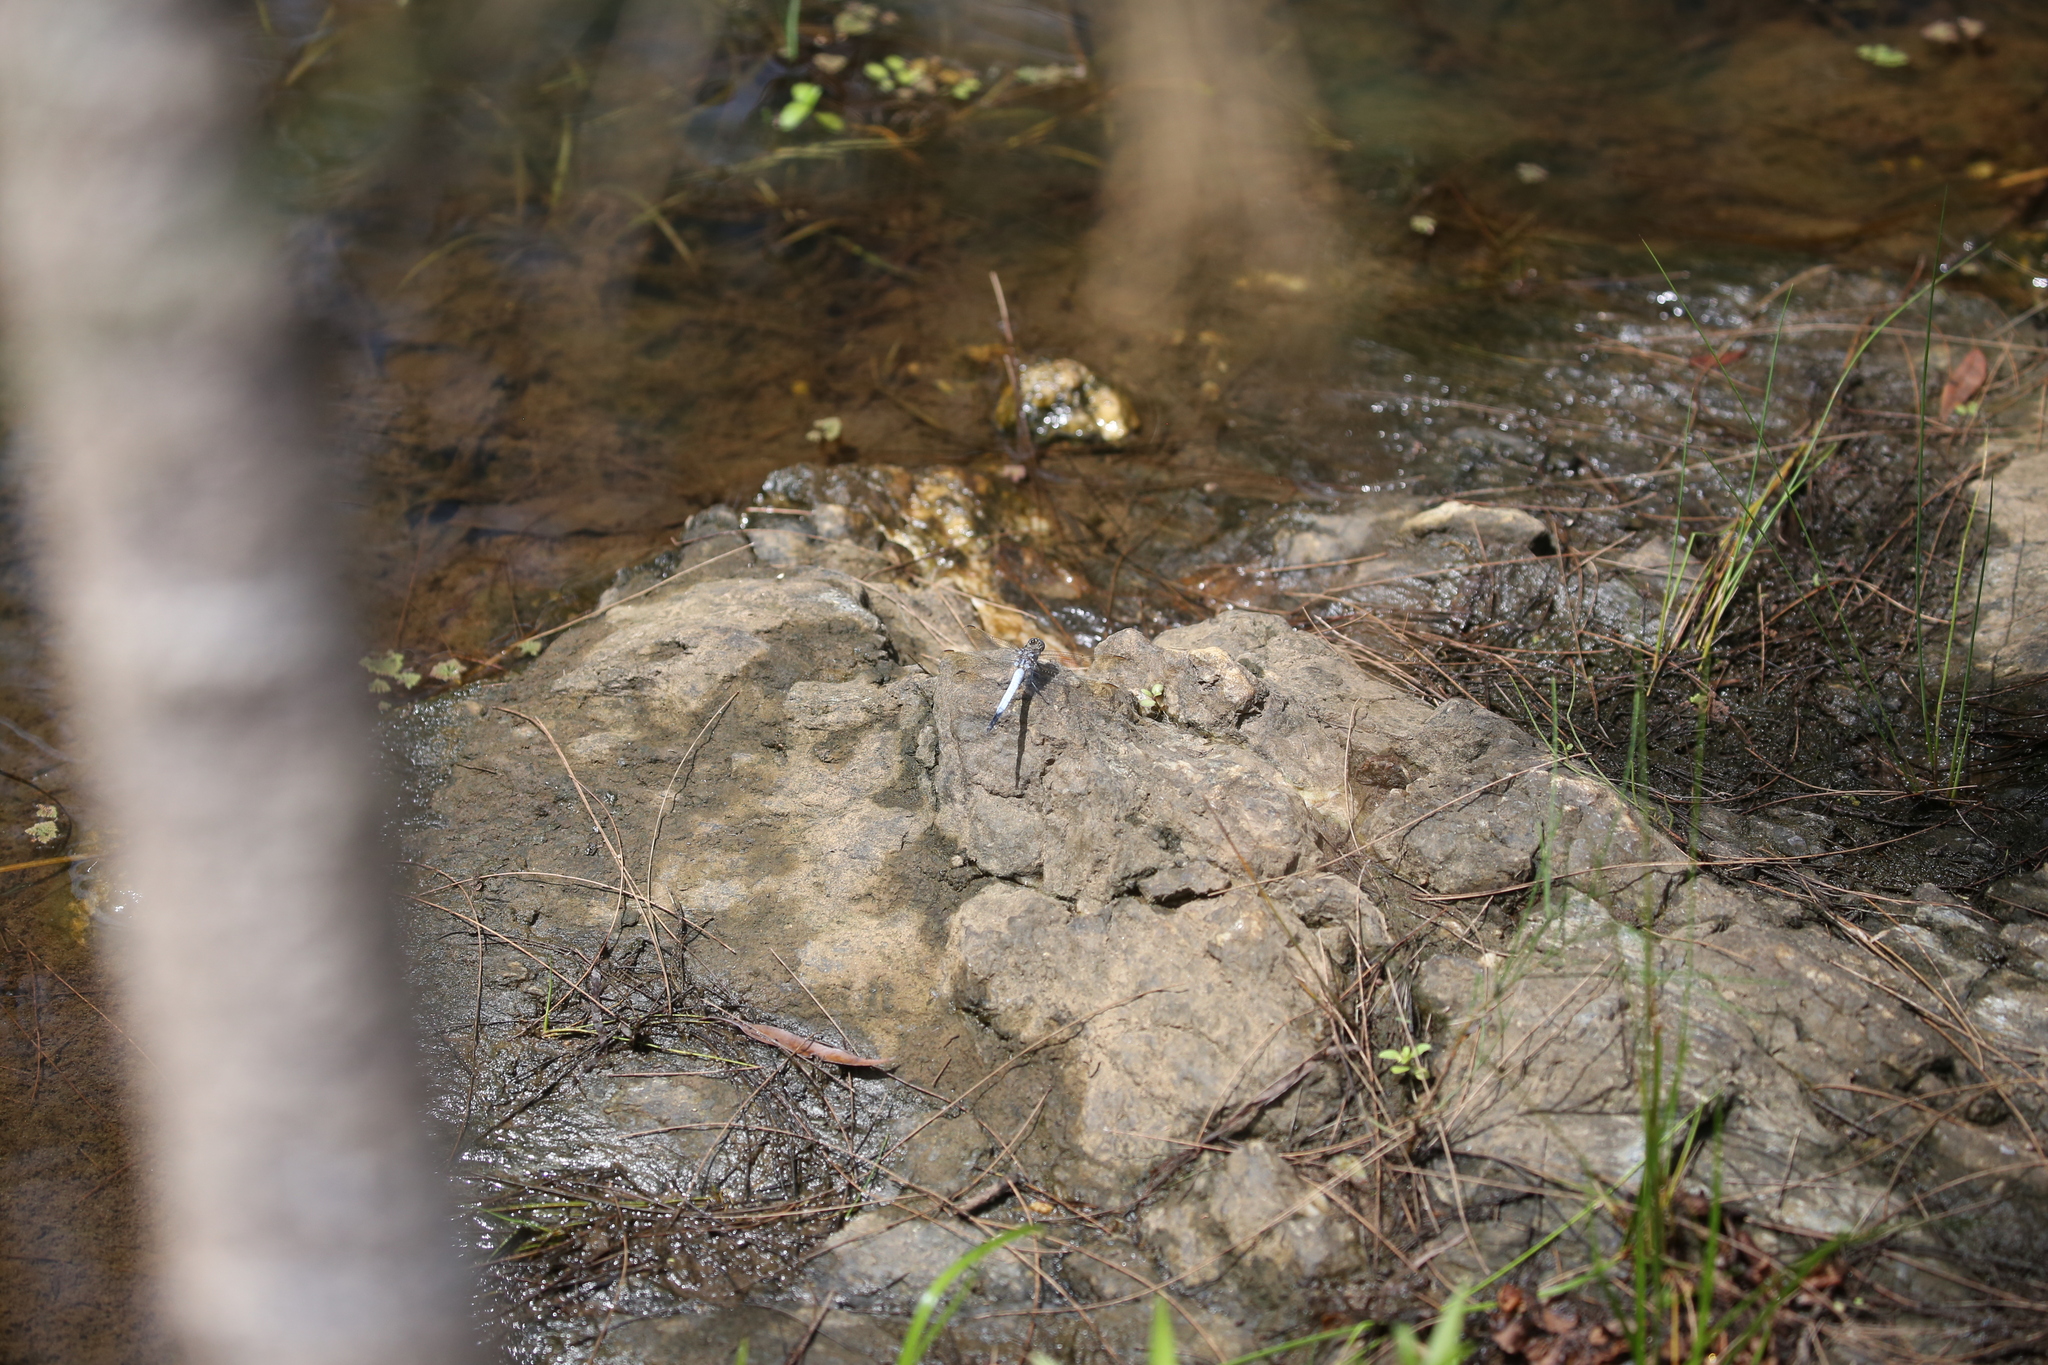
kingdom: Animalia
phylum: Arthropoda
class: Insecta
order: Odonata
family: Libellulidae
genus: Orthetrum
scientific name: Orthetrum caledonicum
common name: Blue skimmer
